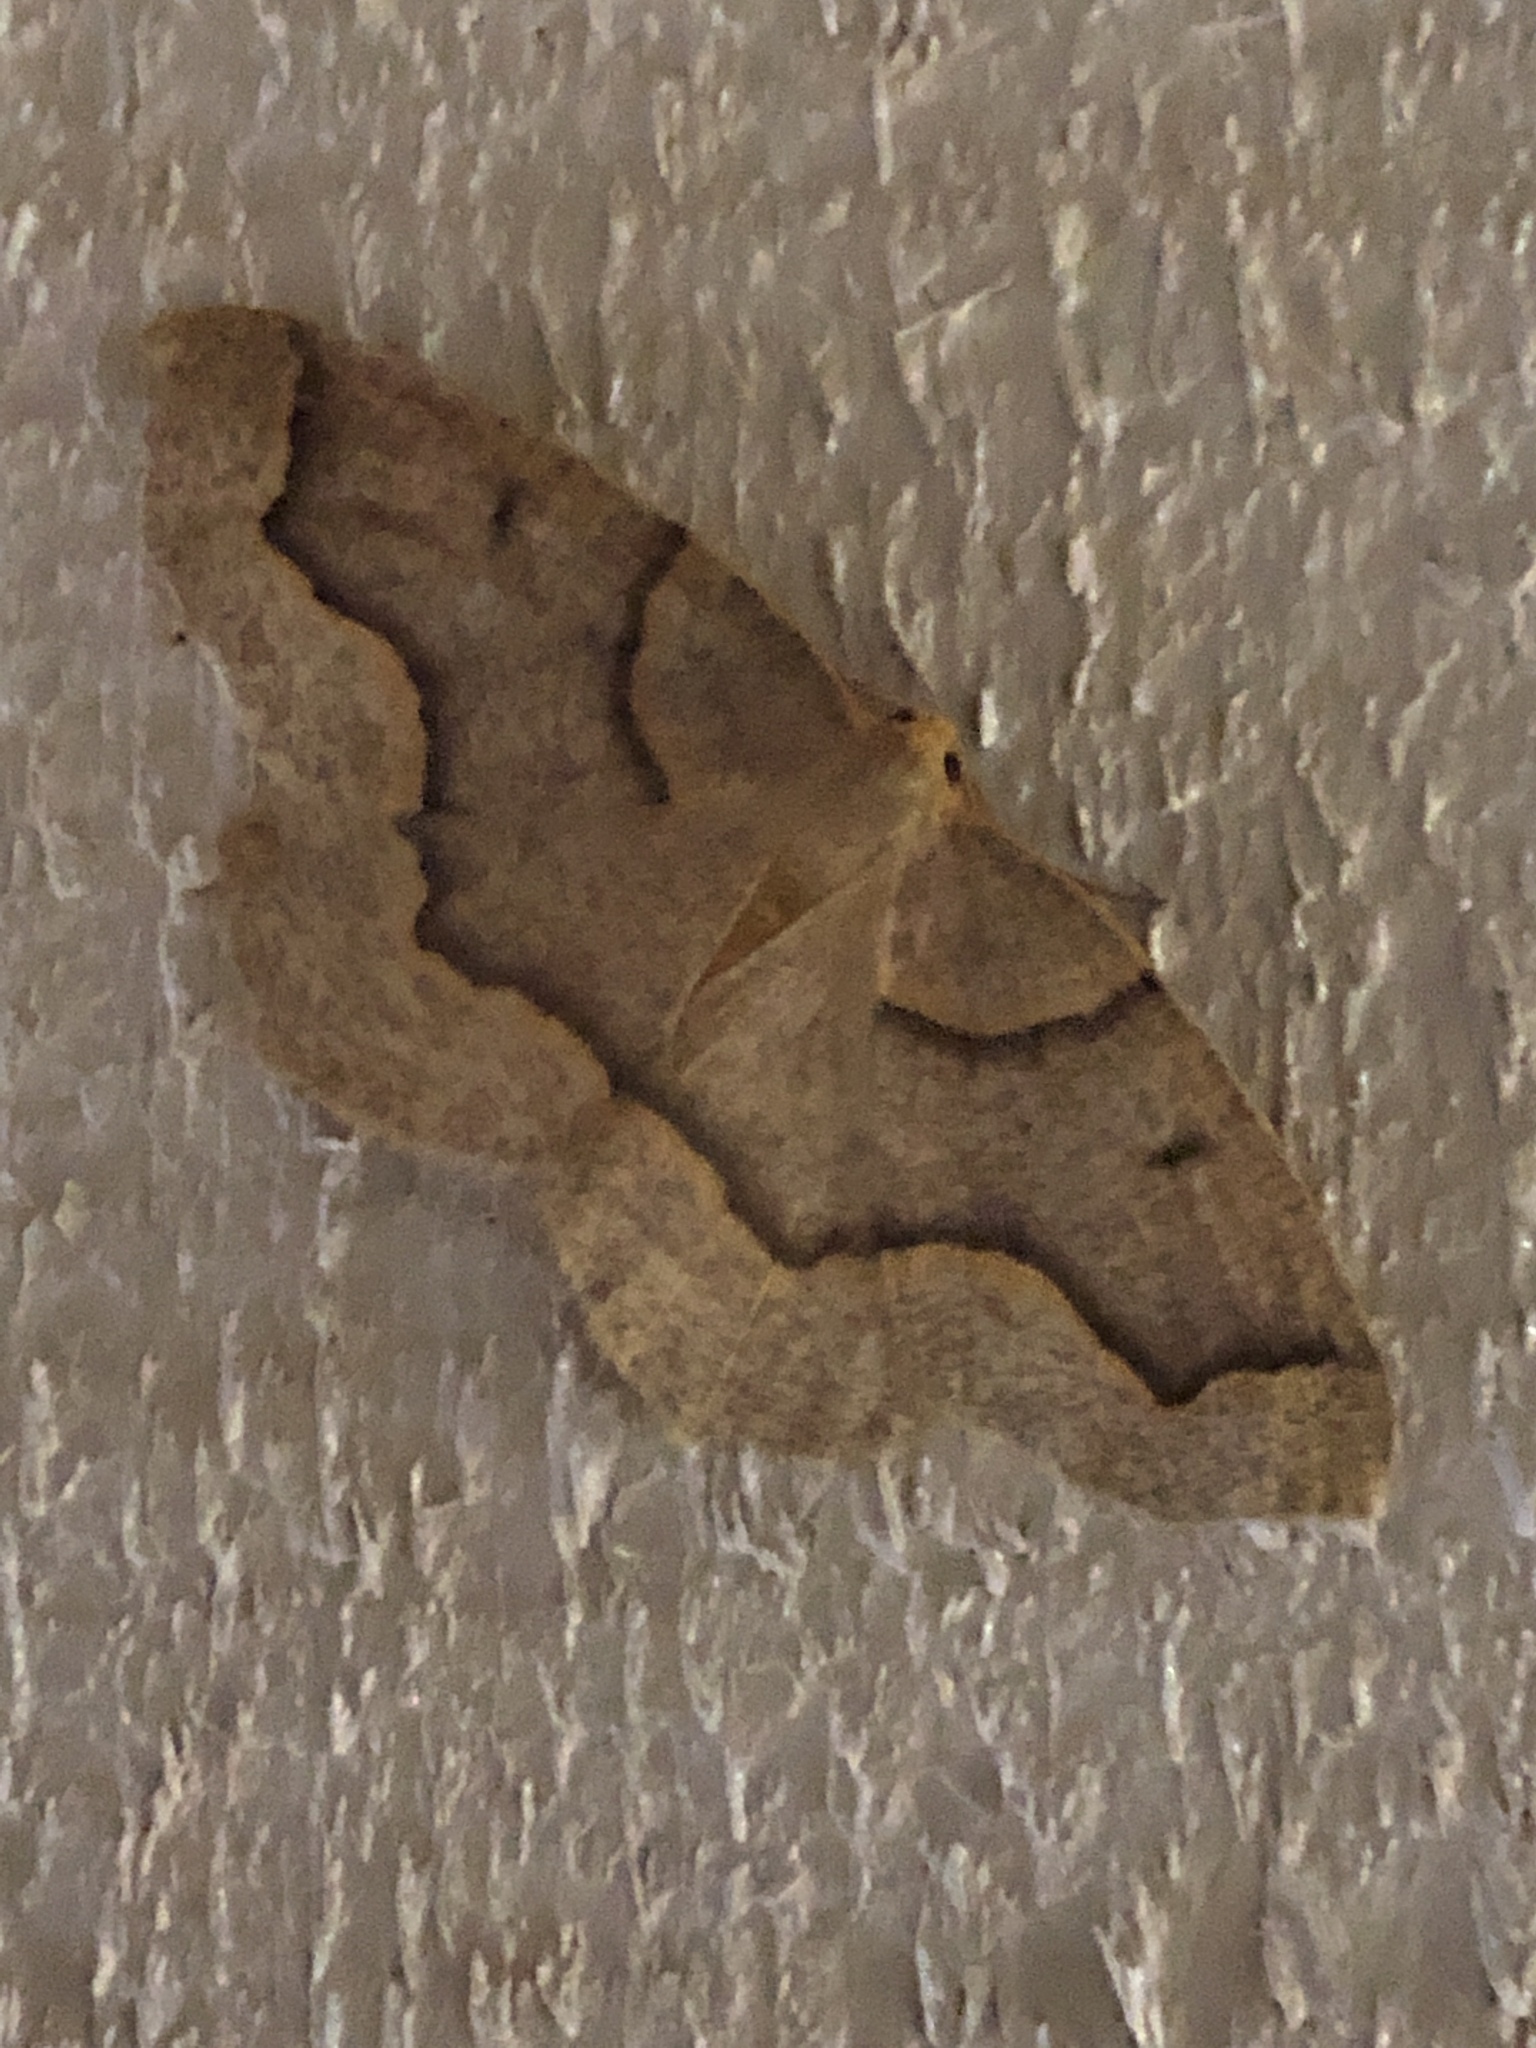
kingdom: Animalia
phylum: Arthropoda
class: Insecta
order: Lepidoptera
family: Geometridae
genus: Lambdina
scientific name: Lambdina fiscellaria
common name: Hemlock looper
